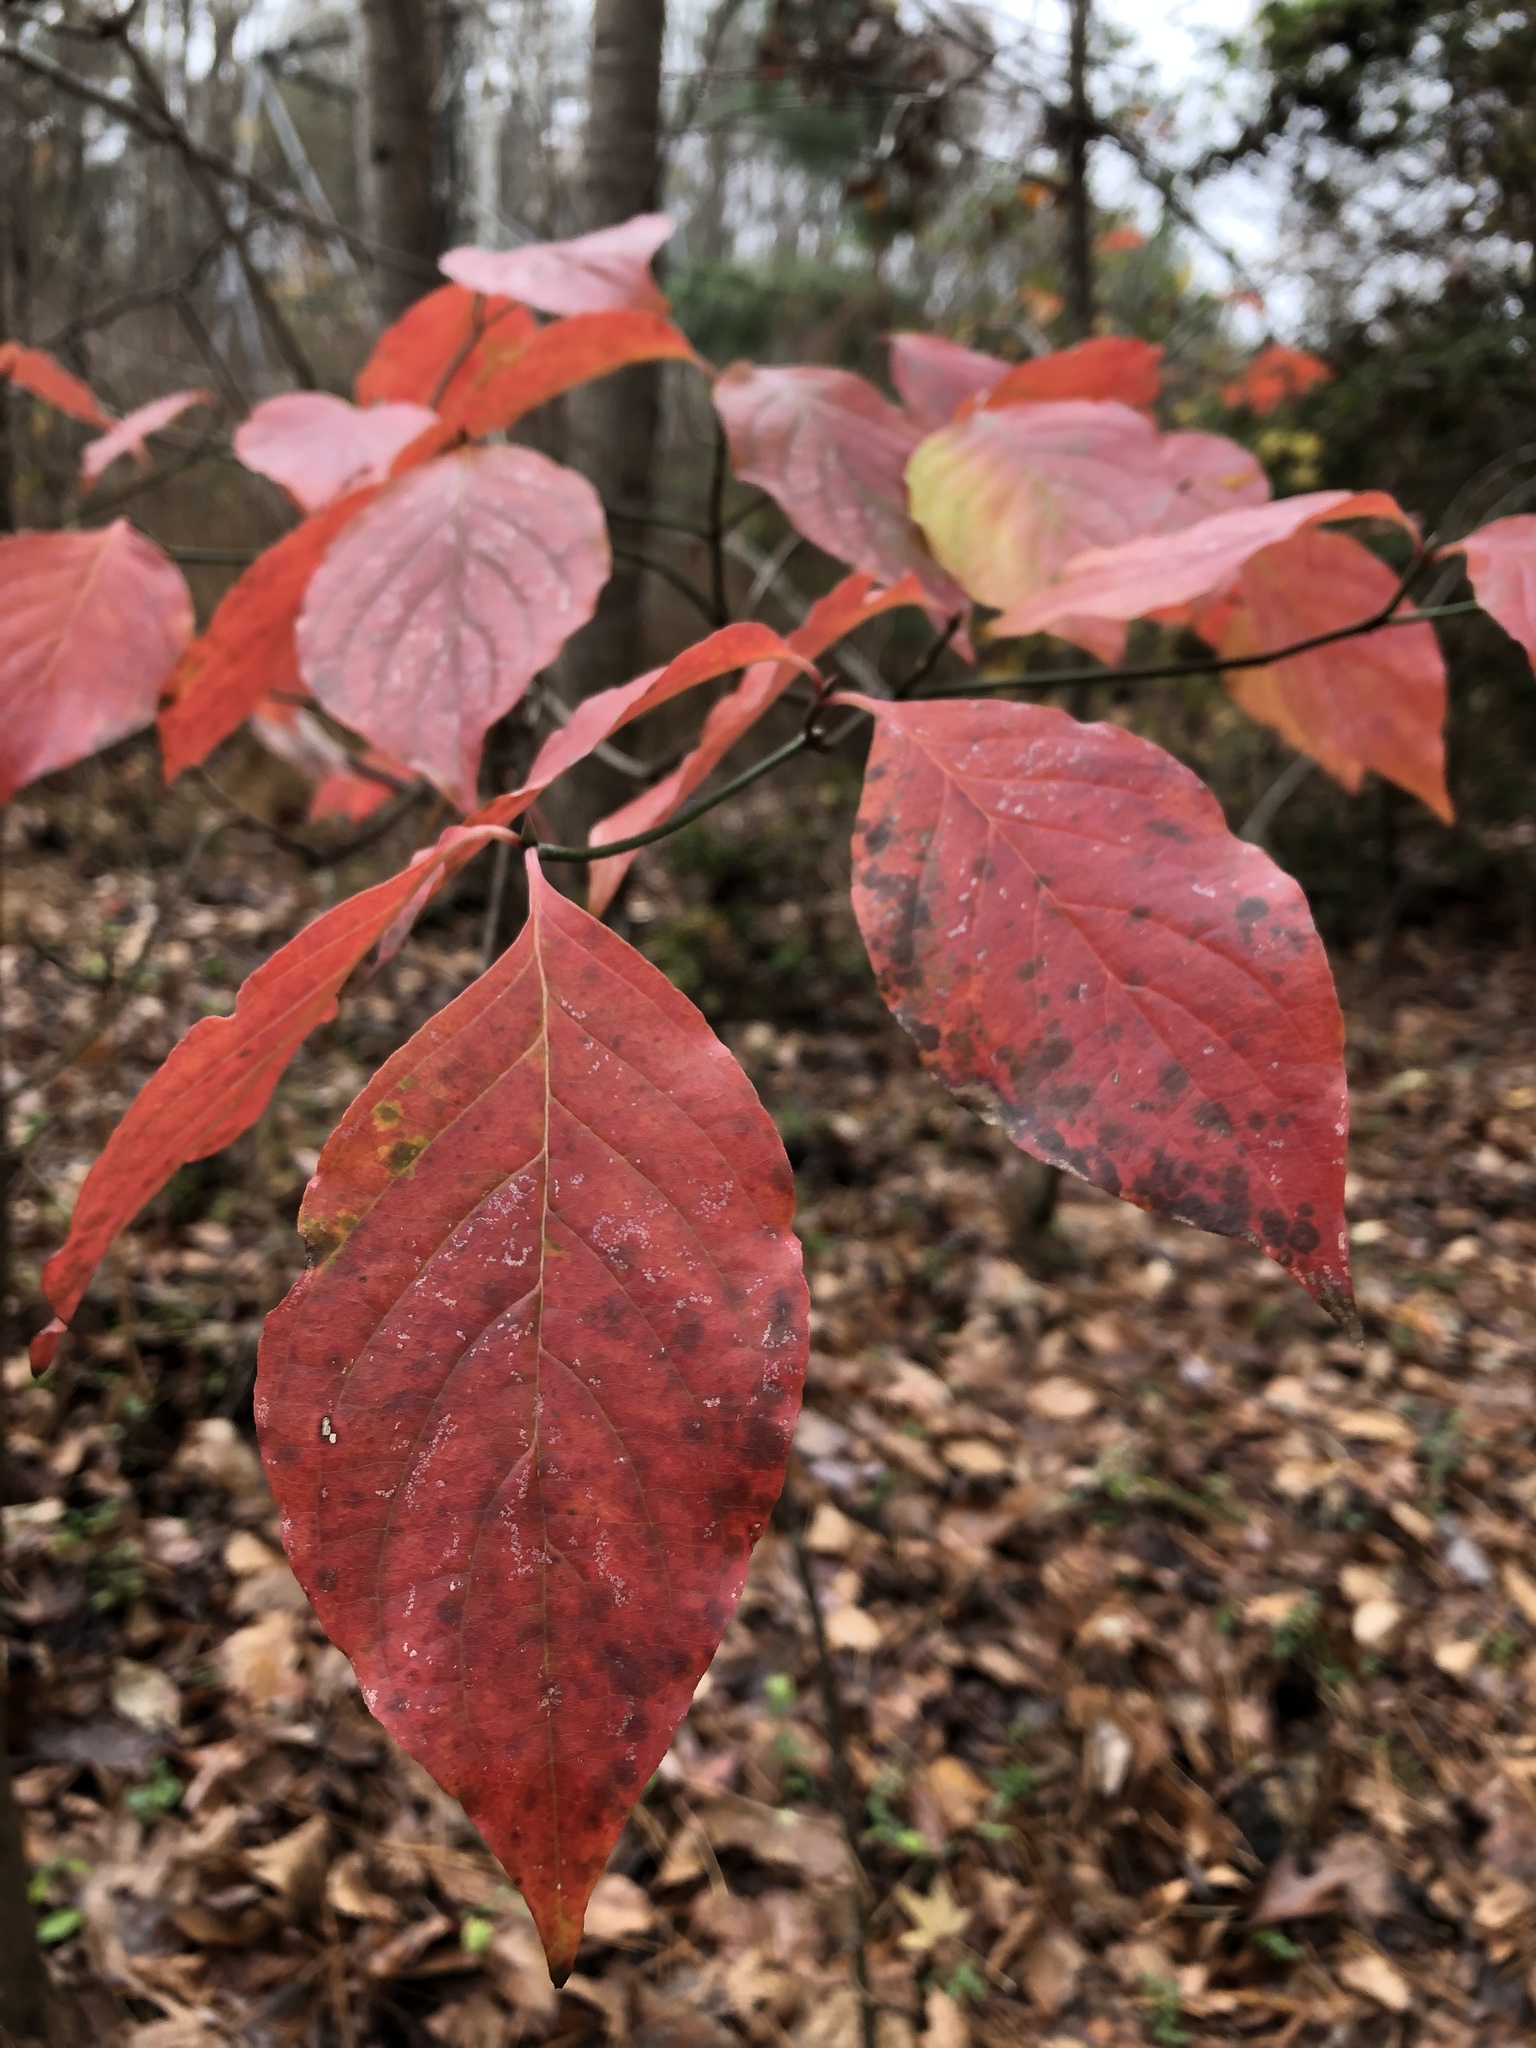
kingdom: Plantae
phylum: Tracheophyta
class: Magnoliopsida
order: Cornales
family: Cornaceae
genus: Cornus
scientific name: Cornus florida
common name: Flowering dogwood
